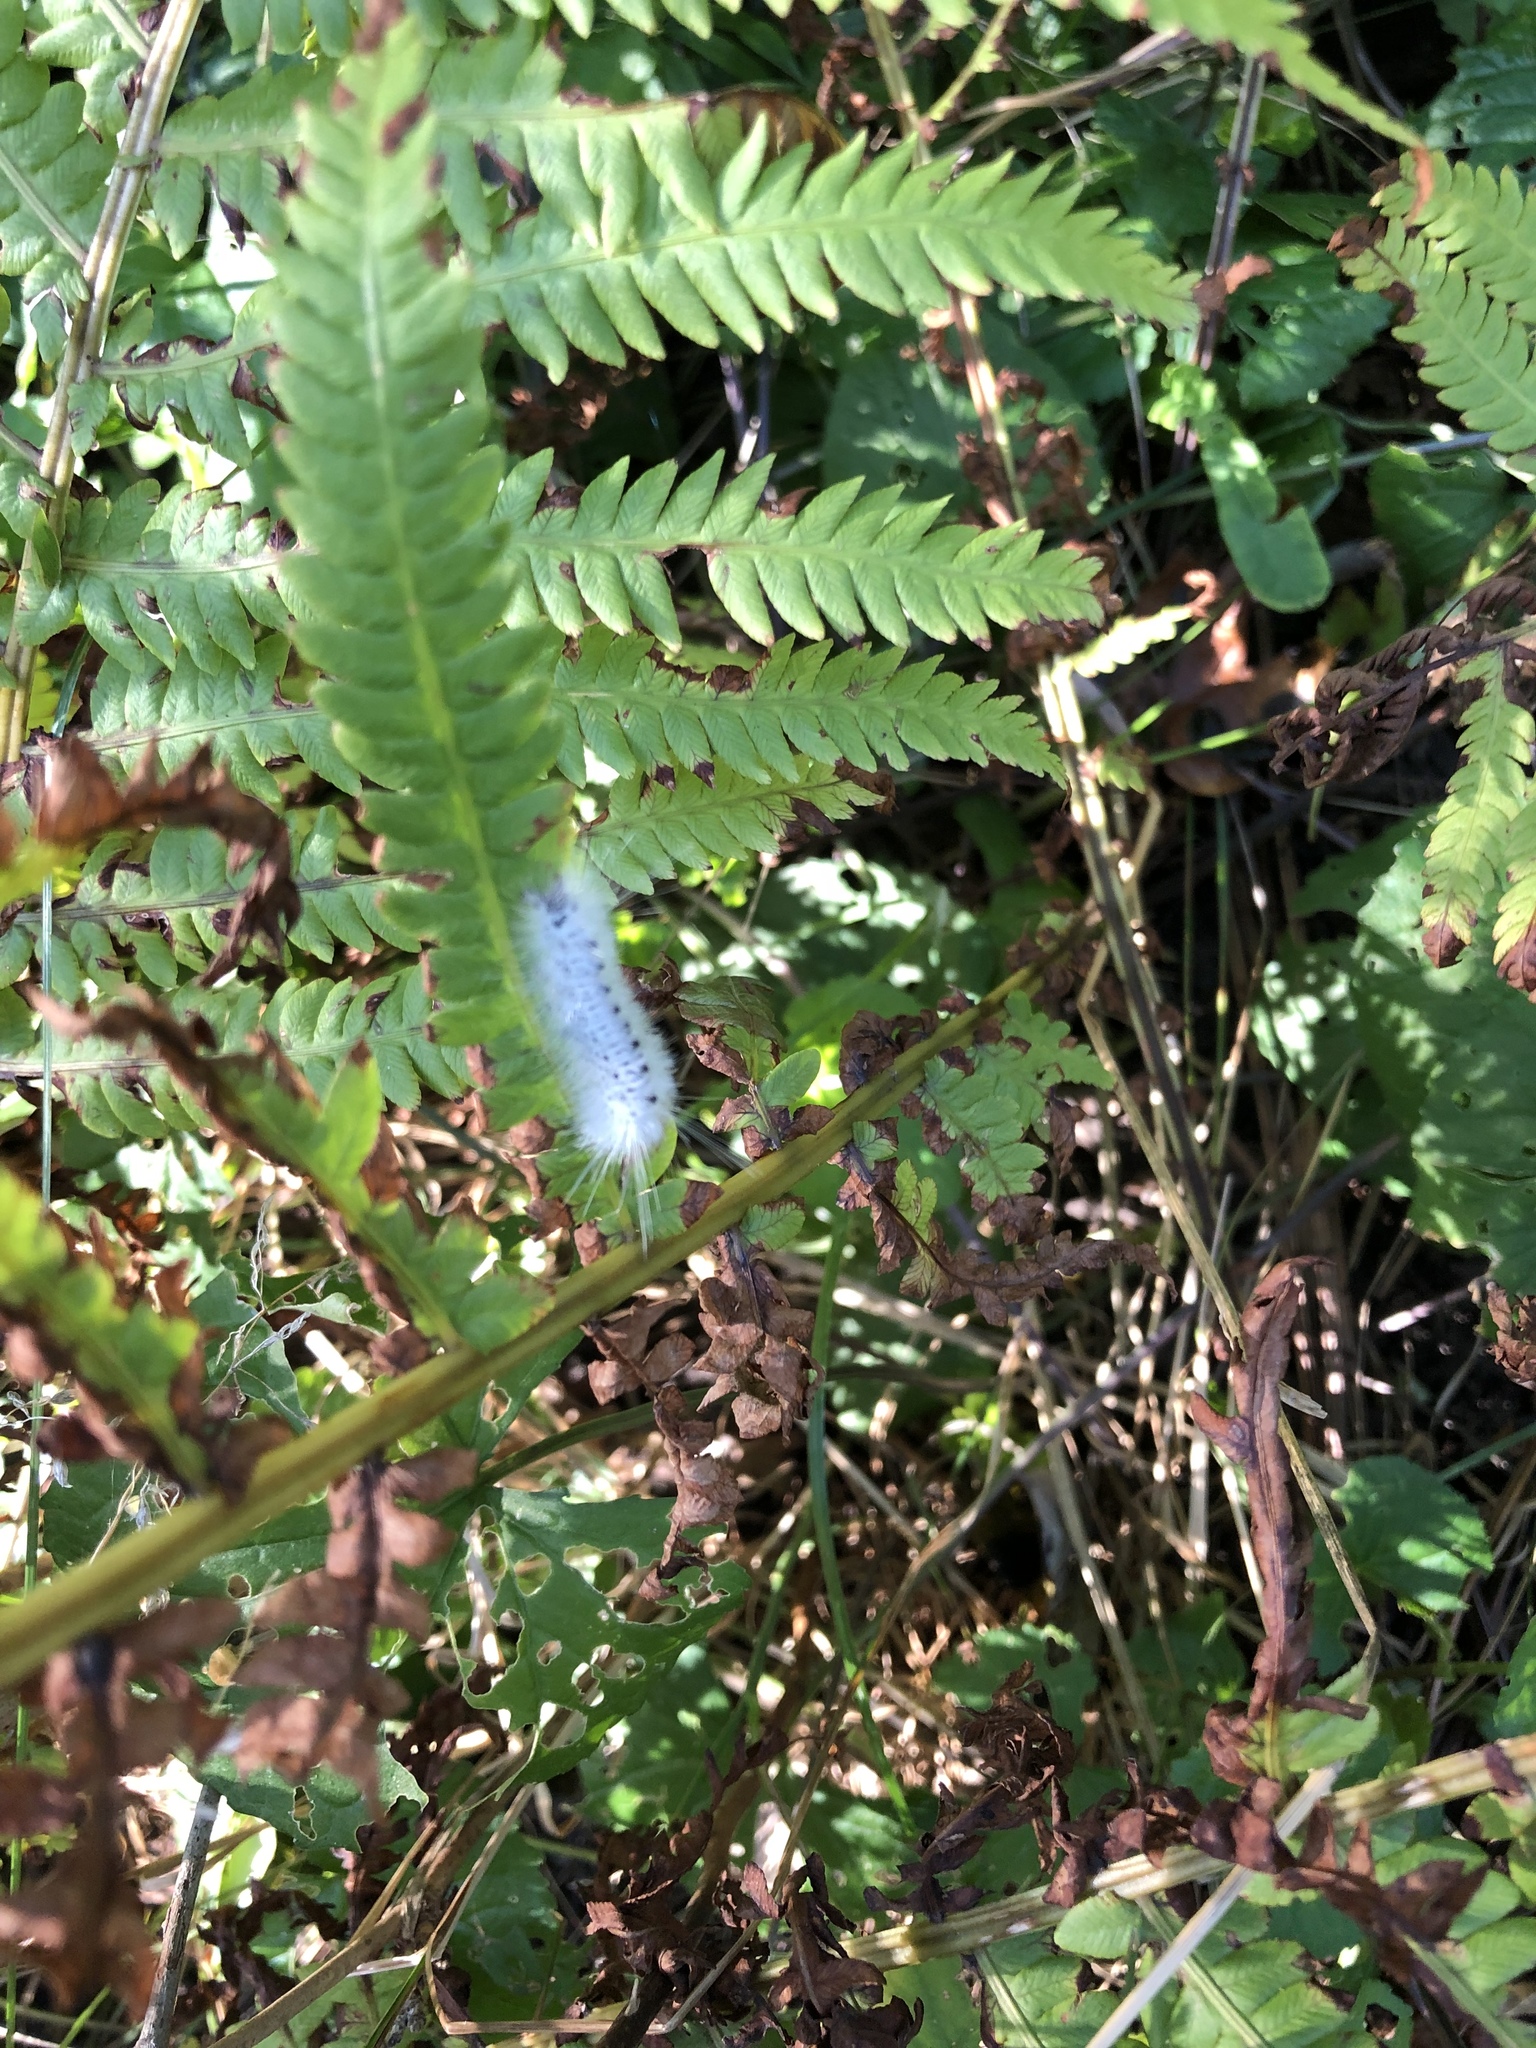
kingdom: Animalia
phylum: Arthropoda
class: Insecta
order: Lepidoptera
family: Erebidae
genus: Lophocampa
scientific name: Lophocampa caryae
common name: Hickory tussock moth
